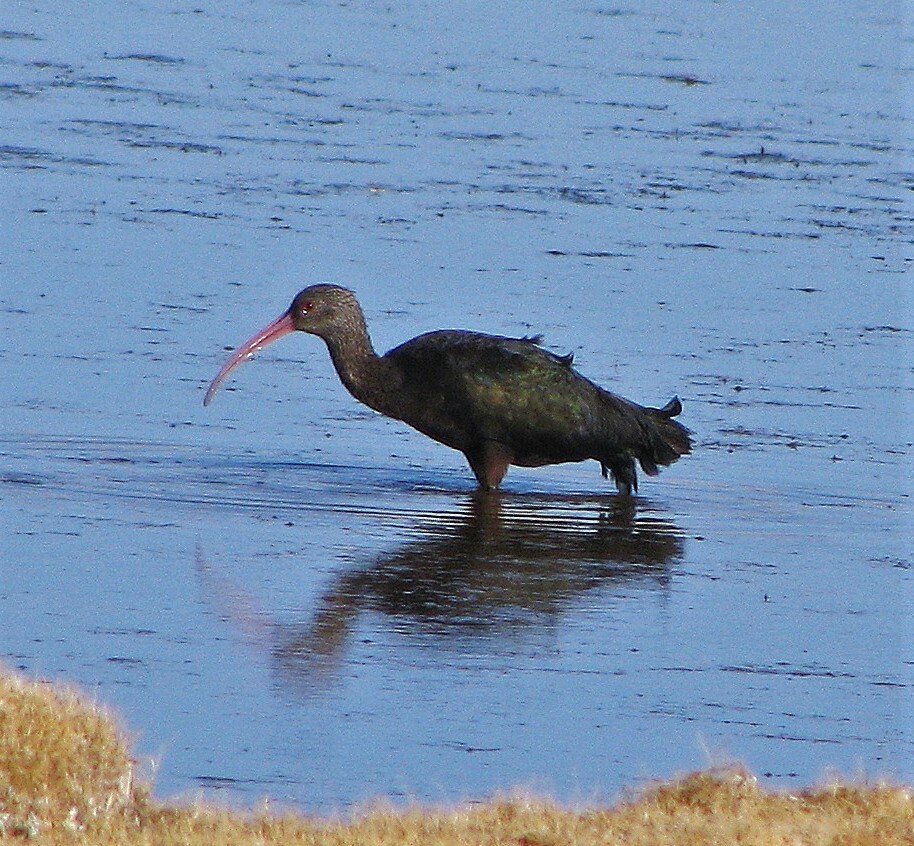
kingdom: Animalia
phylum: Chordata
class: Aves
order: Pelecaniformes
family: Threskiornithidae
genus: Plegadis
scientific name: Plegadis ridgwayi
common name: Puna ibis
